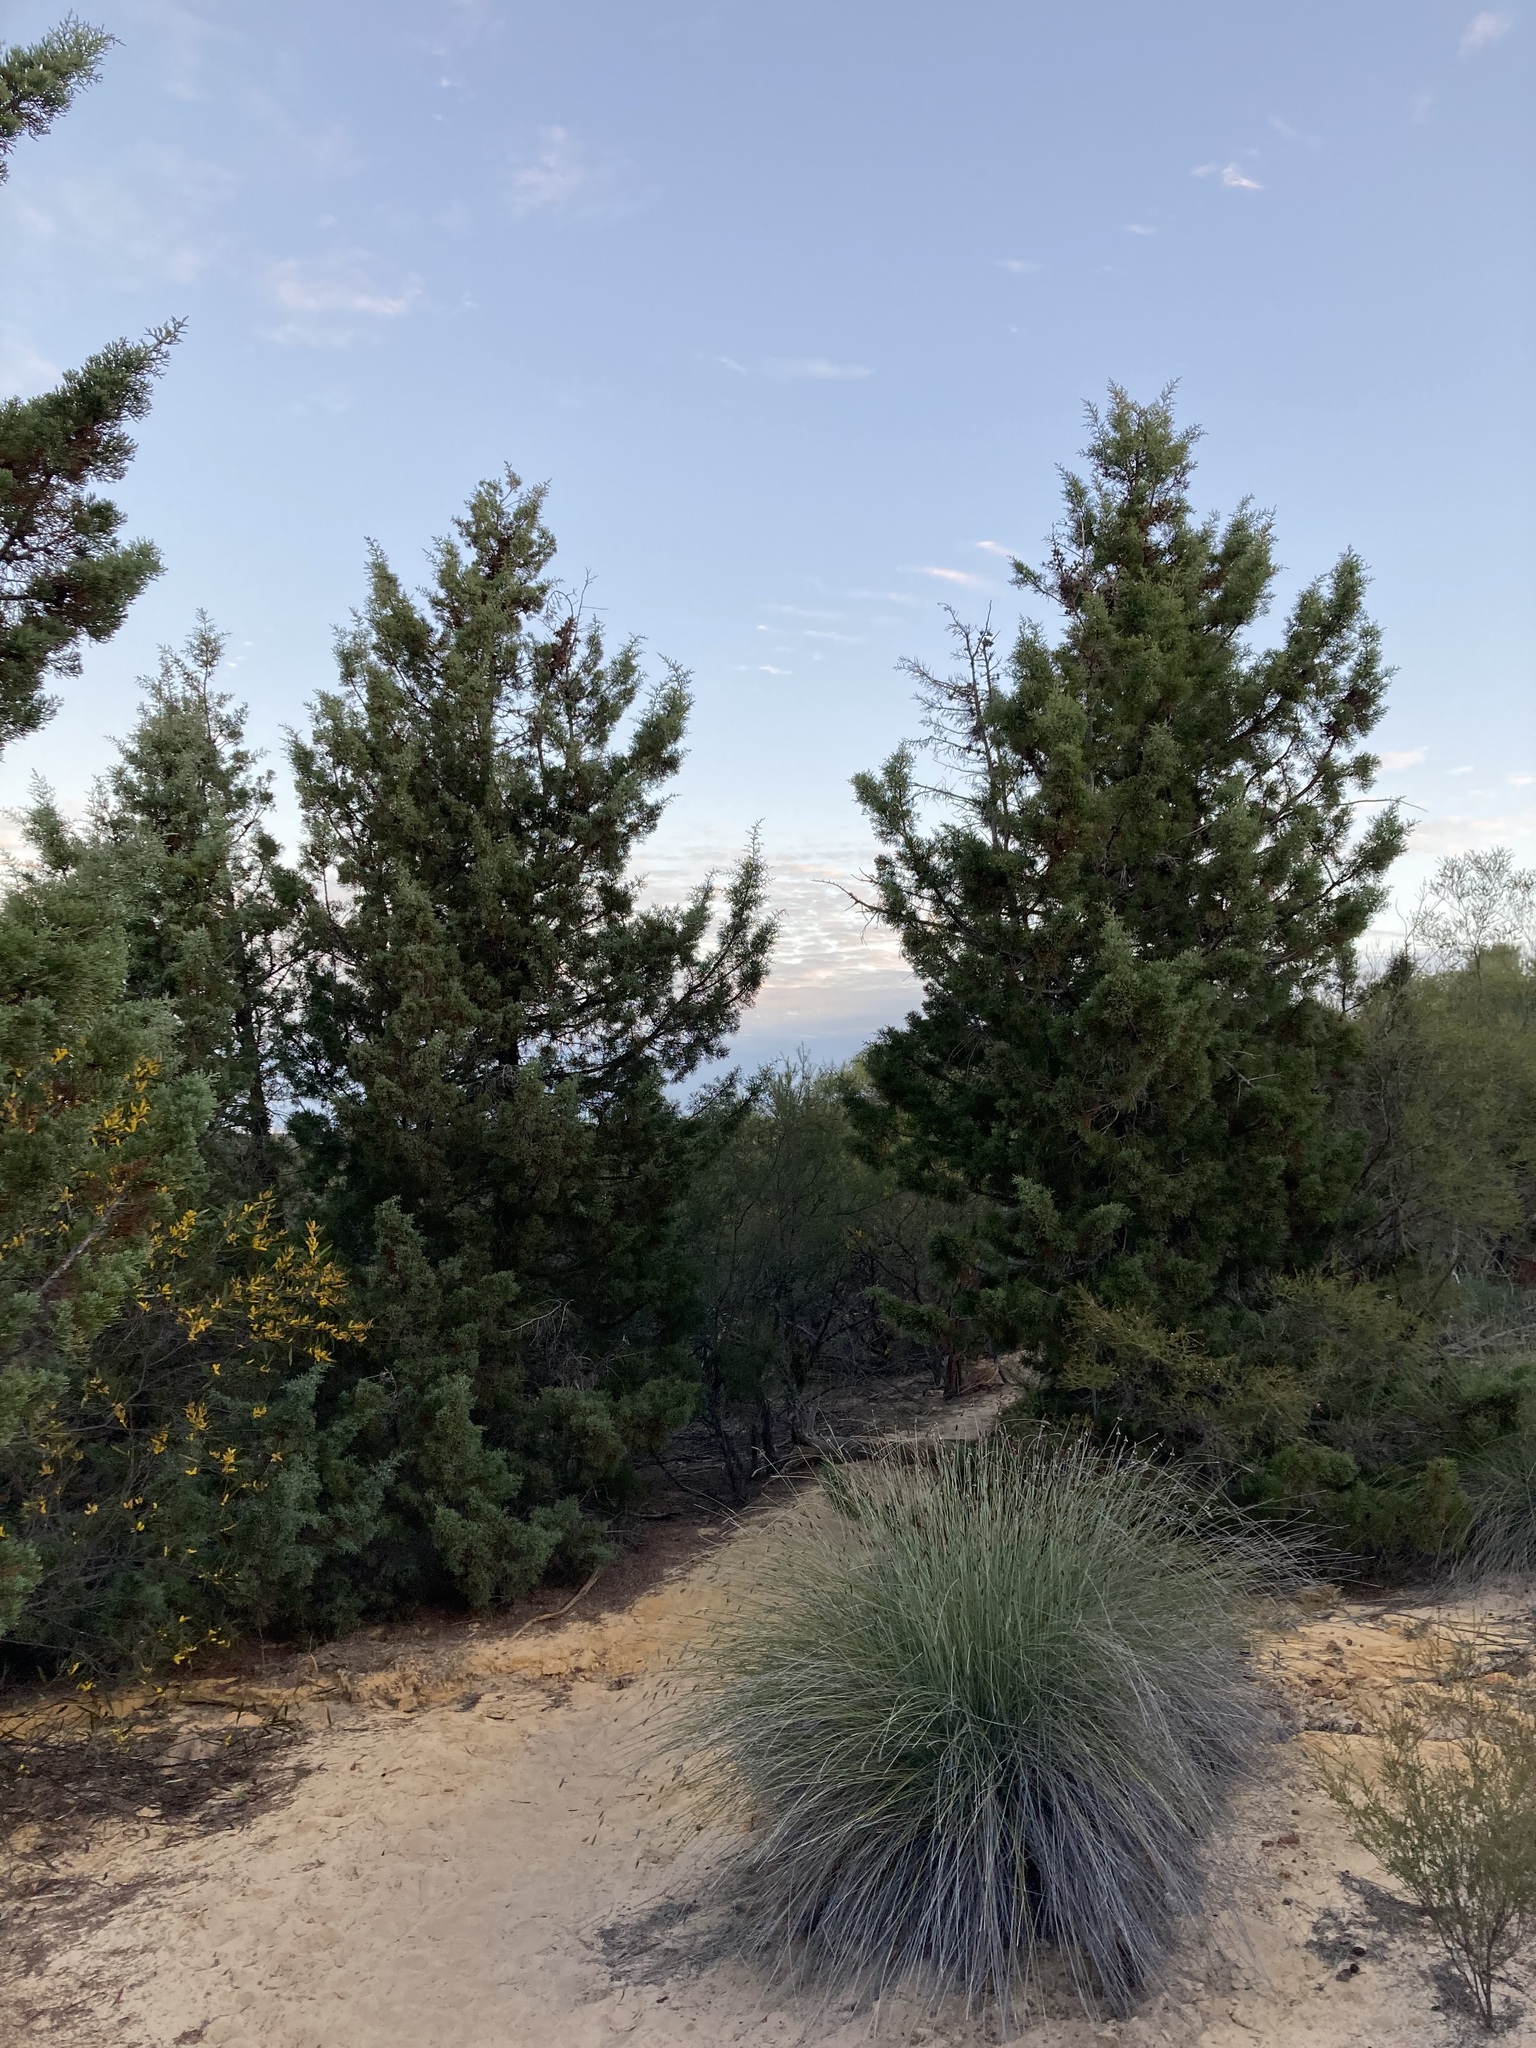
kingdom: Plantae
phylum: Tracheophyta
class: Pinopsida
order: Pinales
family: Cupressaceae
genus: Actinostrobus
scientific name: Actinostrobus arenarius
